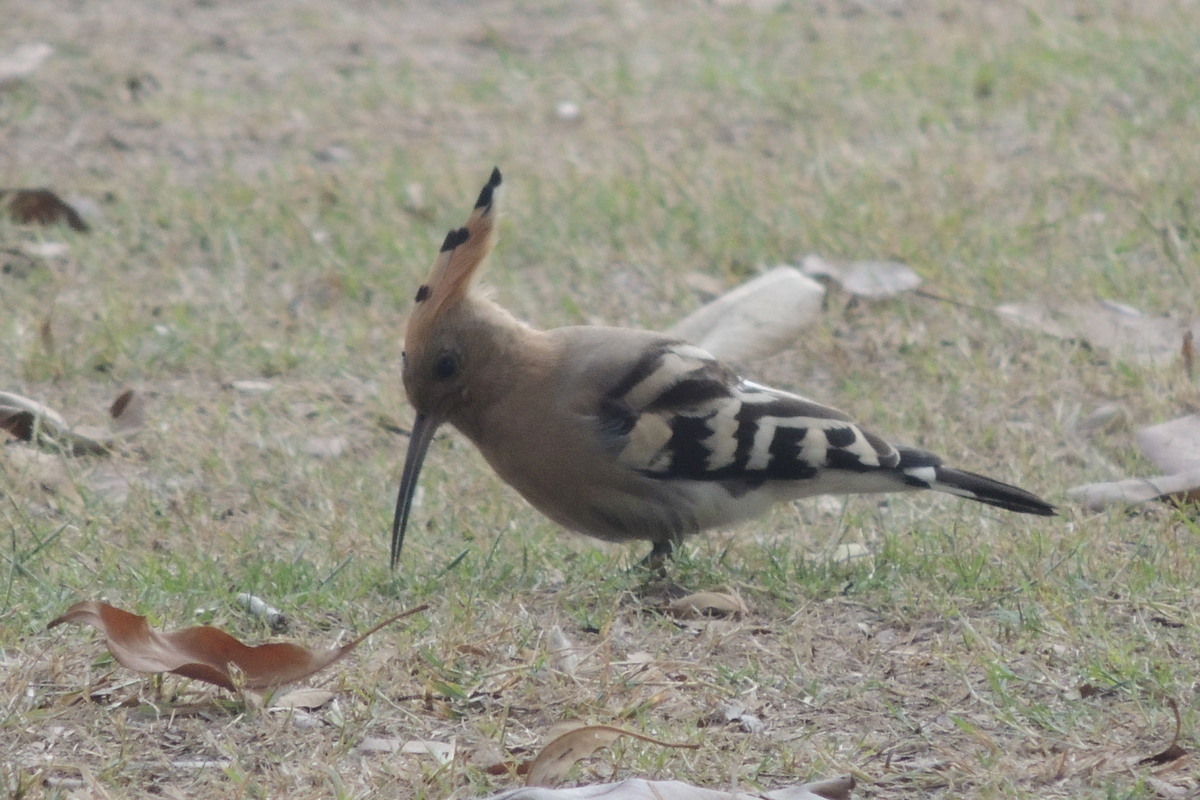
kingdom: Animalia
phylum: Chordata
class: Aves
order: Bucerotiformes
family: Upupidae
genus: Upupa
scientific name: Upupa epops
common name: Eurasian hoopoe
